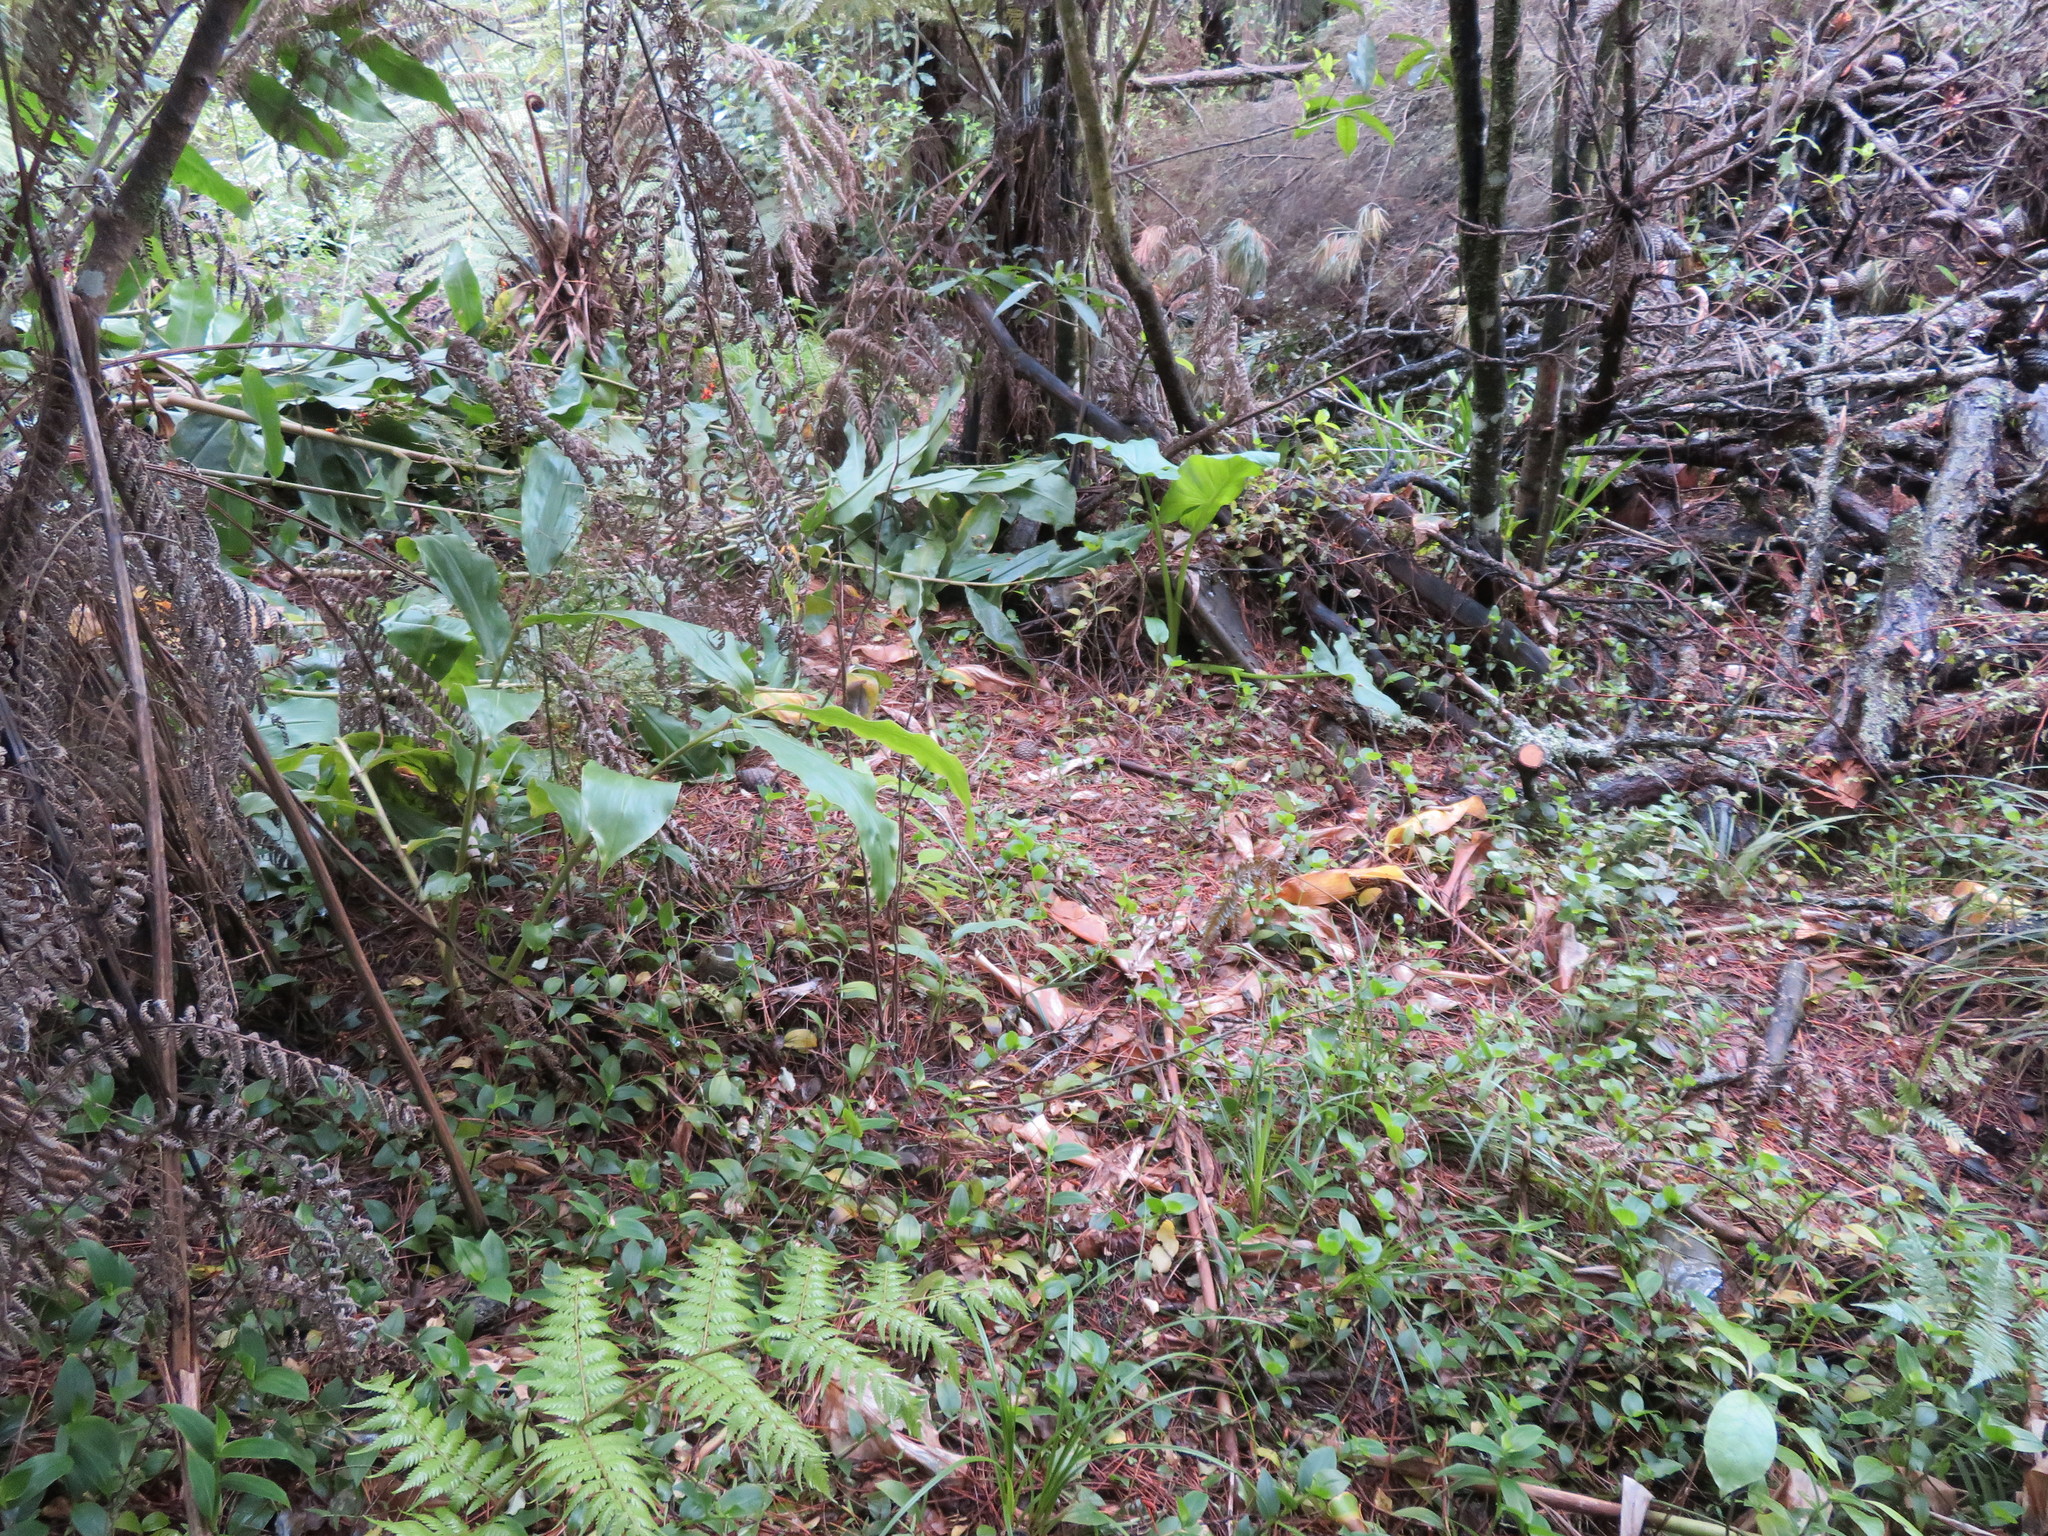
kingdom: Plantae
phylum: Tracheophyta
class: Liliopsida
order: Commelinales
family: Commelinaceae
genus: Tradescantia
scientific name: Tradescantia fluminensis
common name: Wandering-jew
